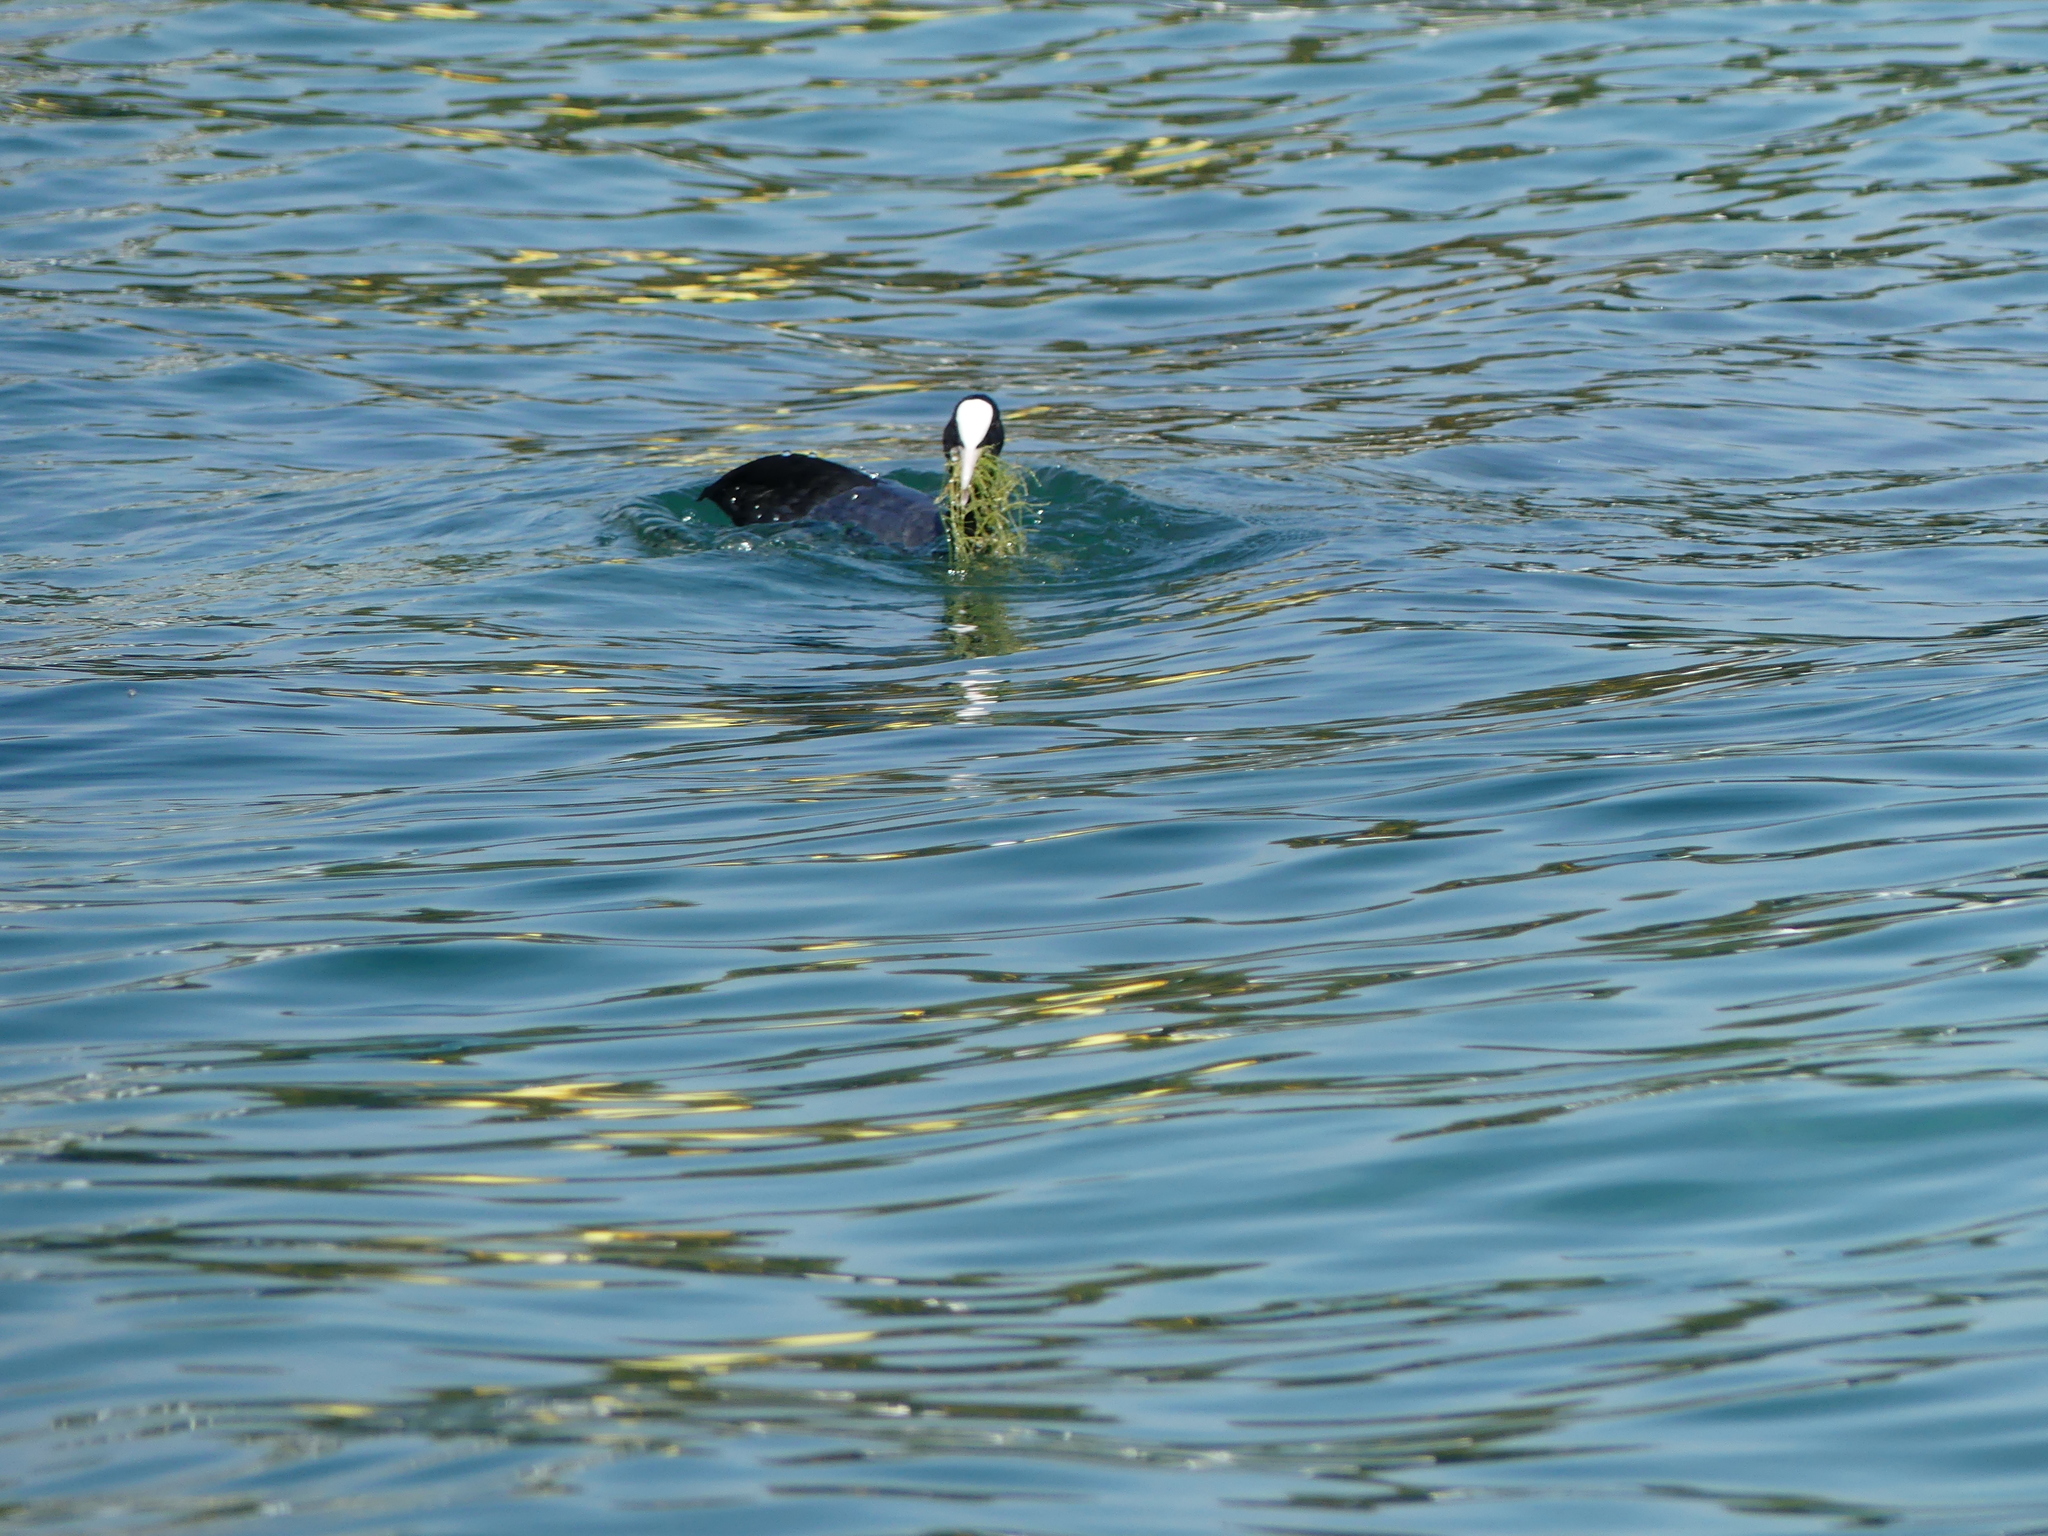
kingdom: Animalia
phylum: Chordata
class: Aves
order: Gruiformes
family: Rallidae
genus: Fulica
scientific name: Fulica atra
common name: Eurasian coot
